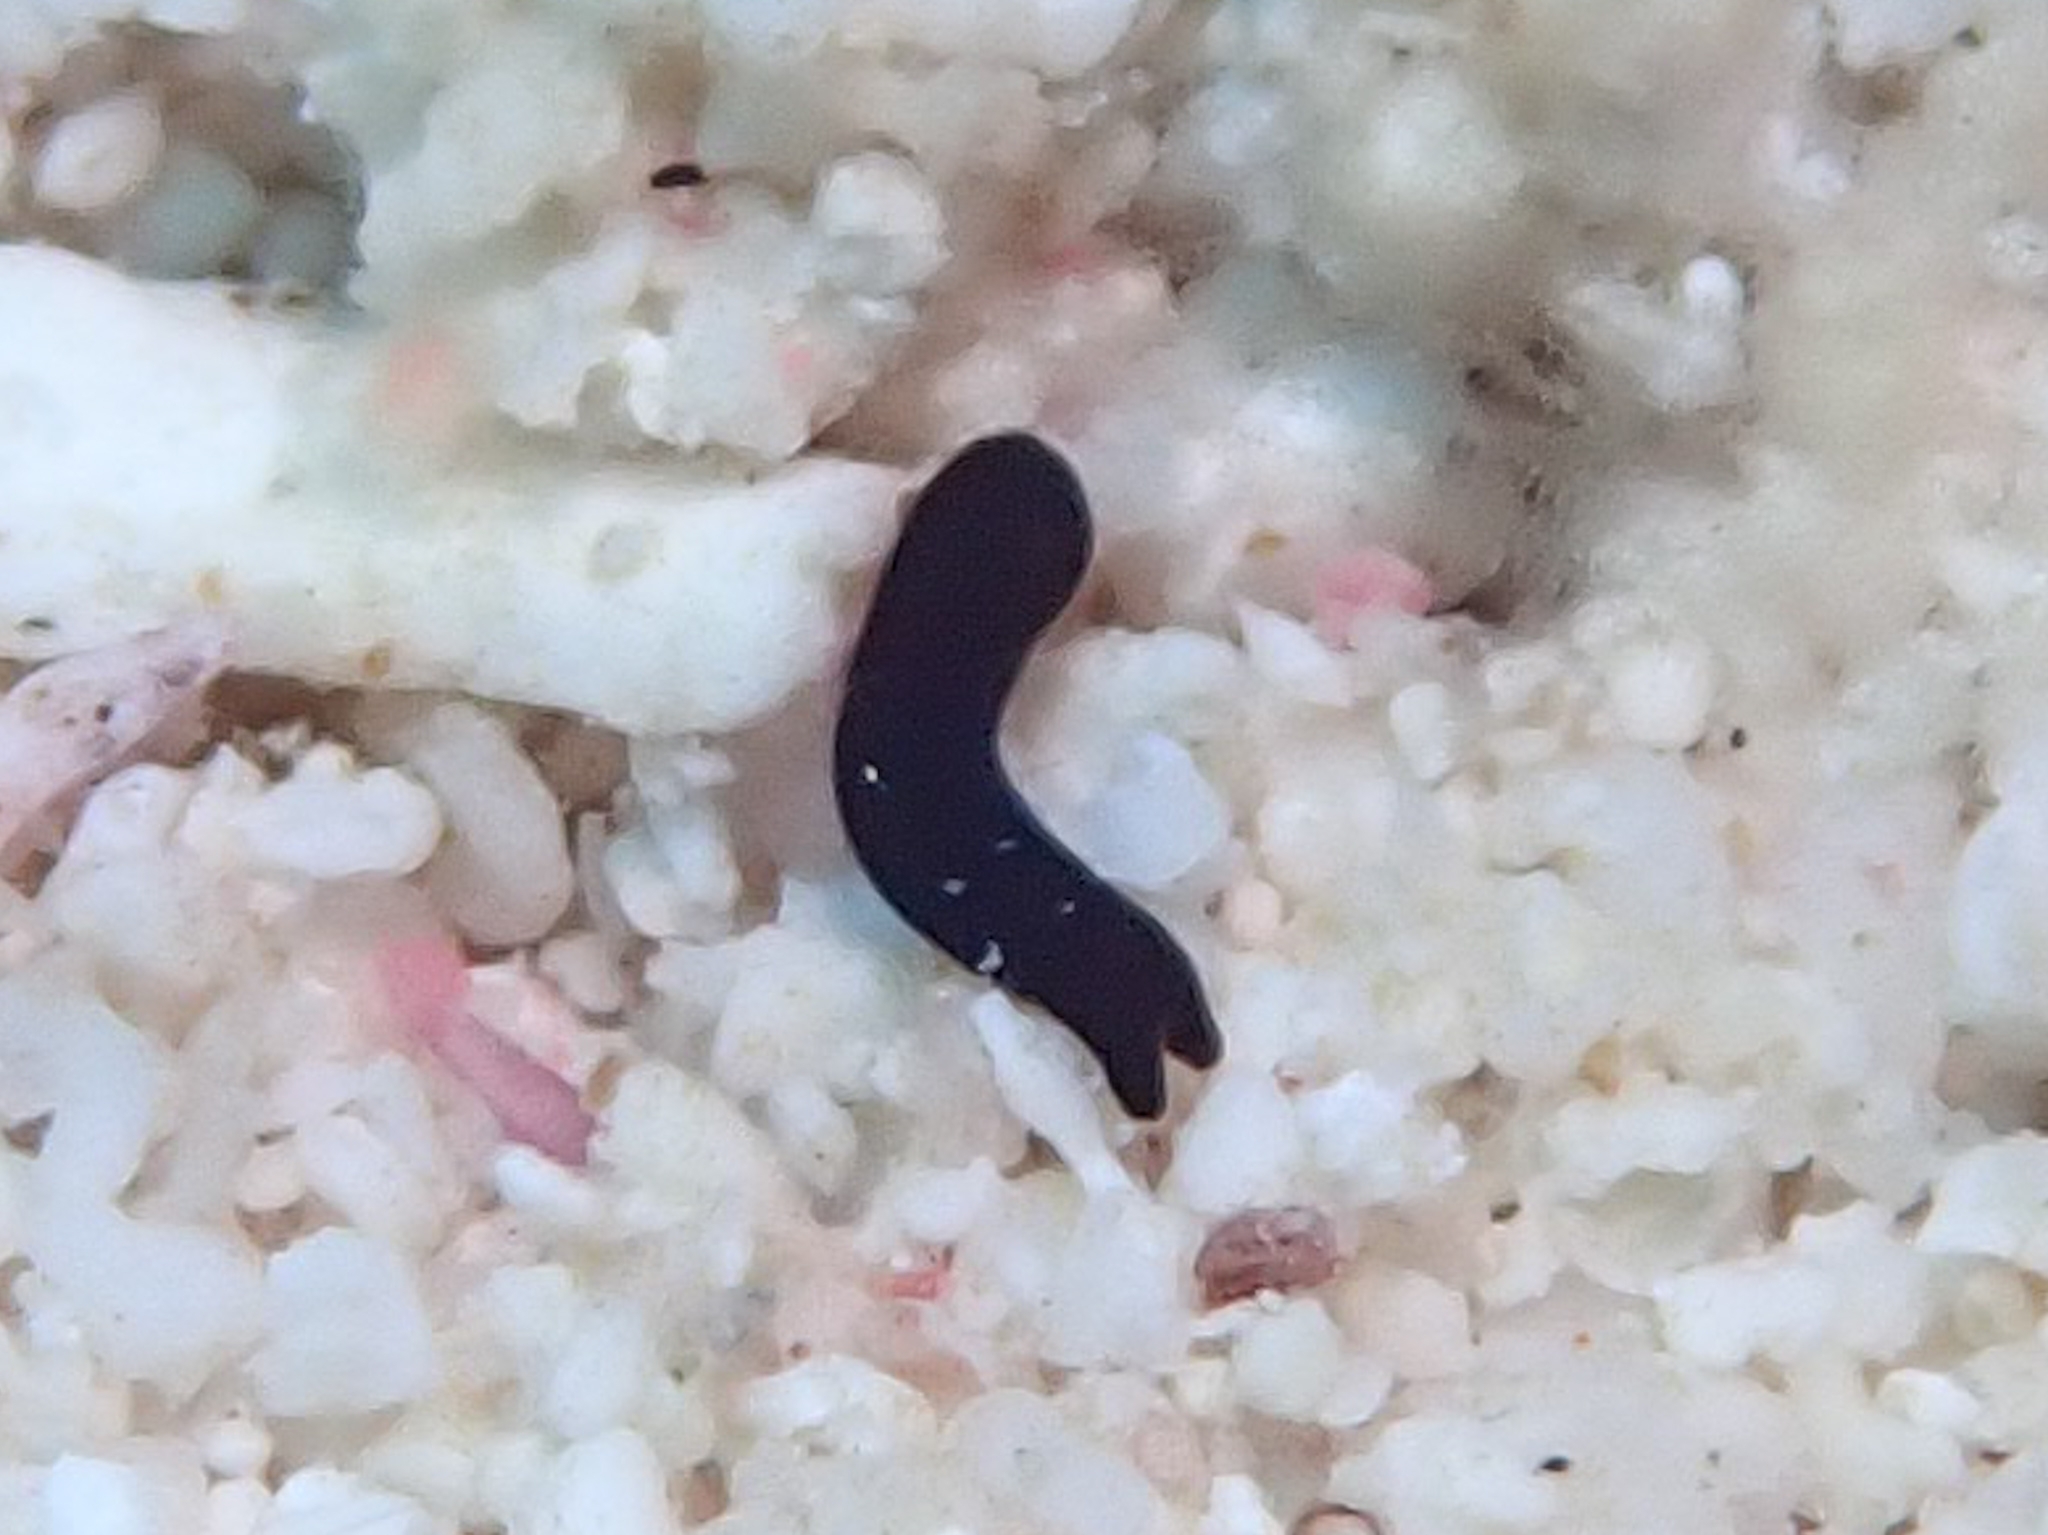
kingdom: Animalia
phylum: Mollusca
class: Gastropoda
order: Cephalaspidea
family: Aglajidae
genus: Nakamigawaia
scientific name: Nakamigawaia felis
